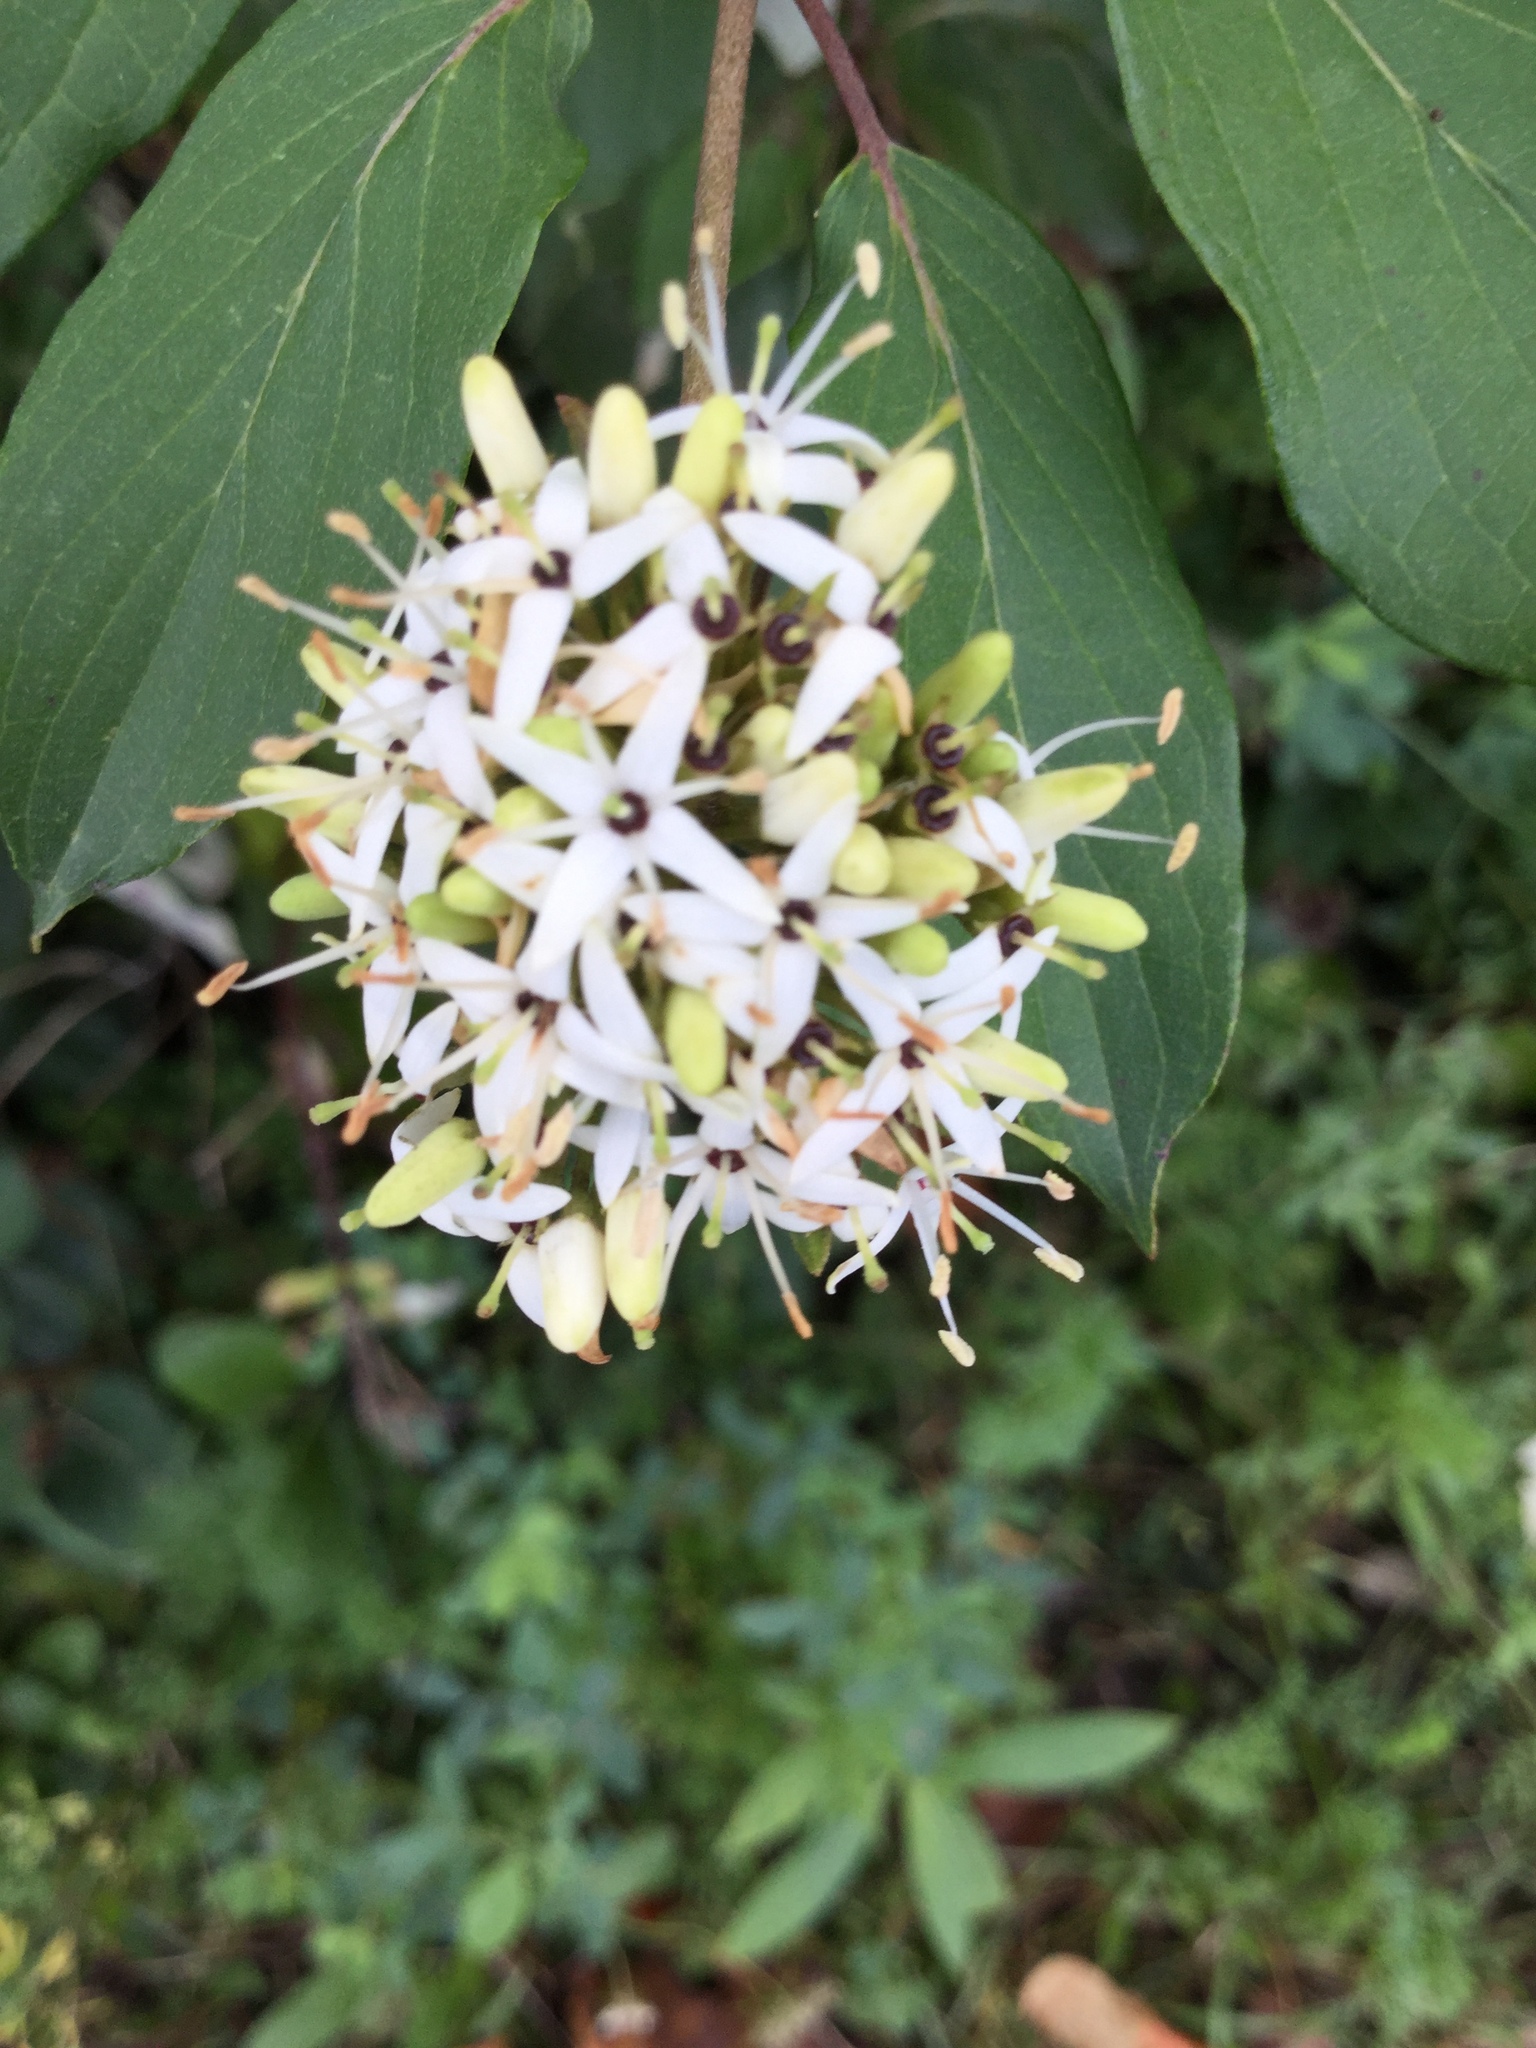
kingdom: Plantae
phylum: Tracheophyta
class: Magnoliopsida
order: Cornales
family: Cornaceae
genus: Cornus
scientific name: Cornus amomum
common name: Silky dogwood
